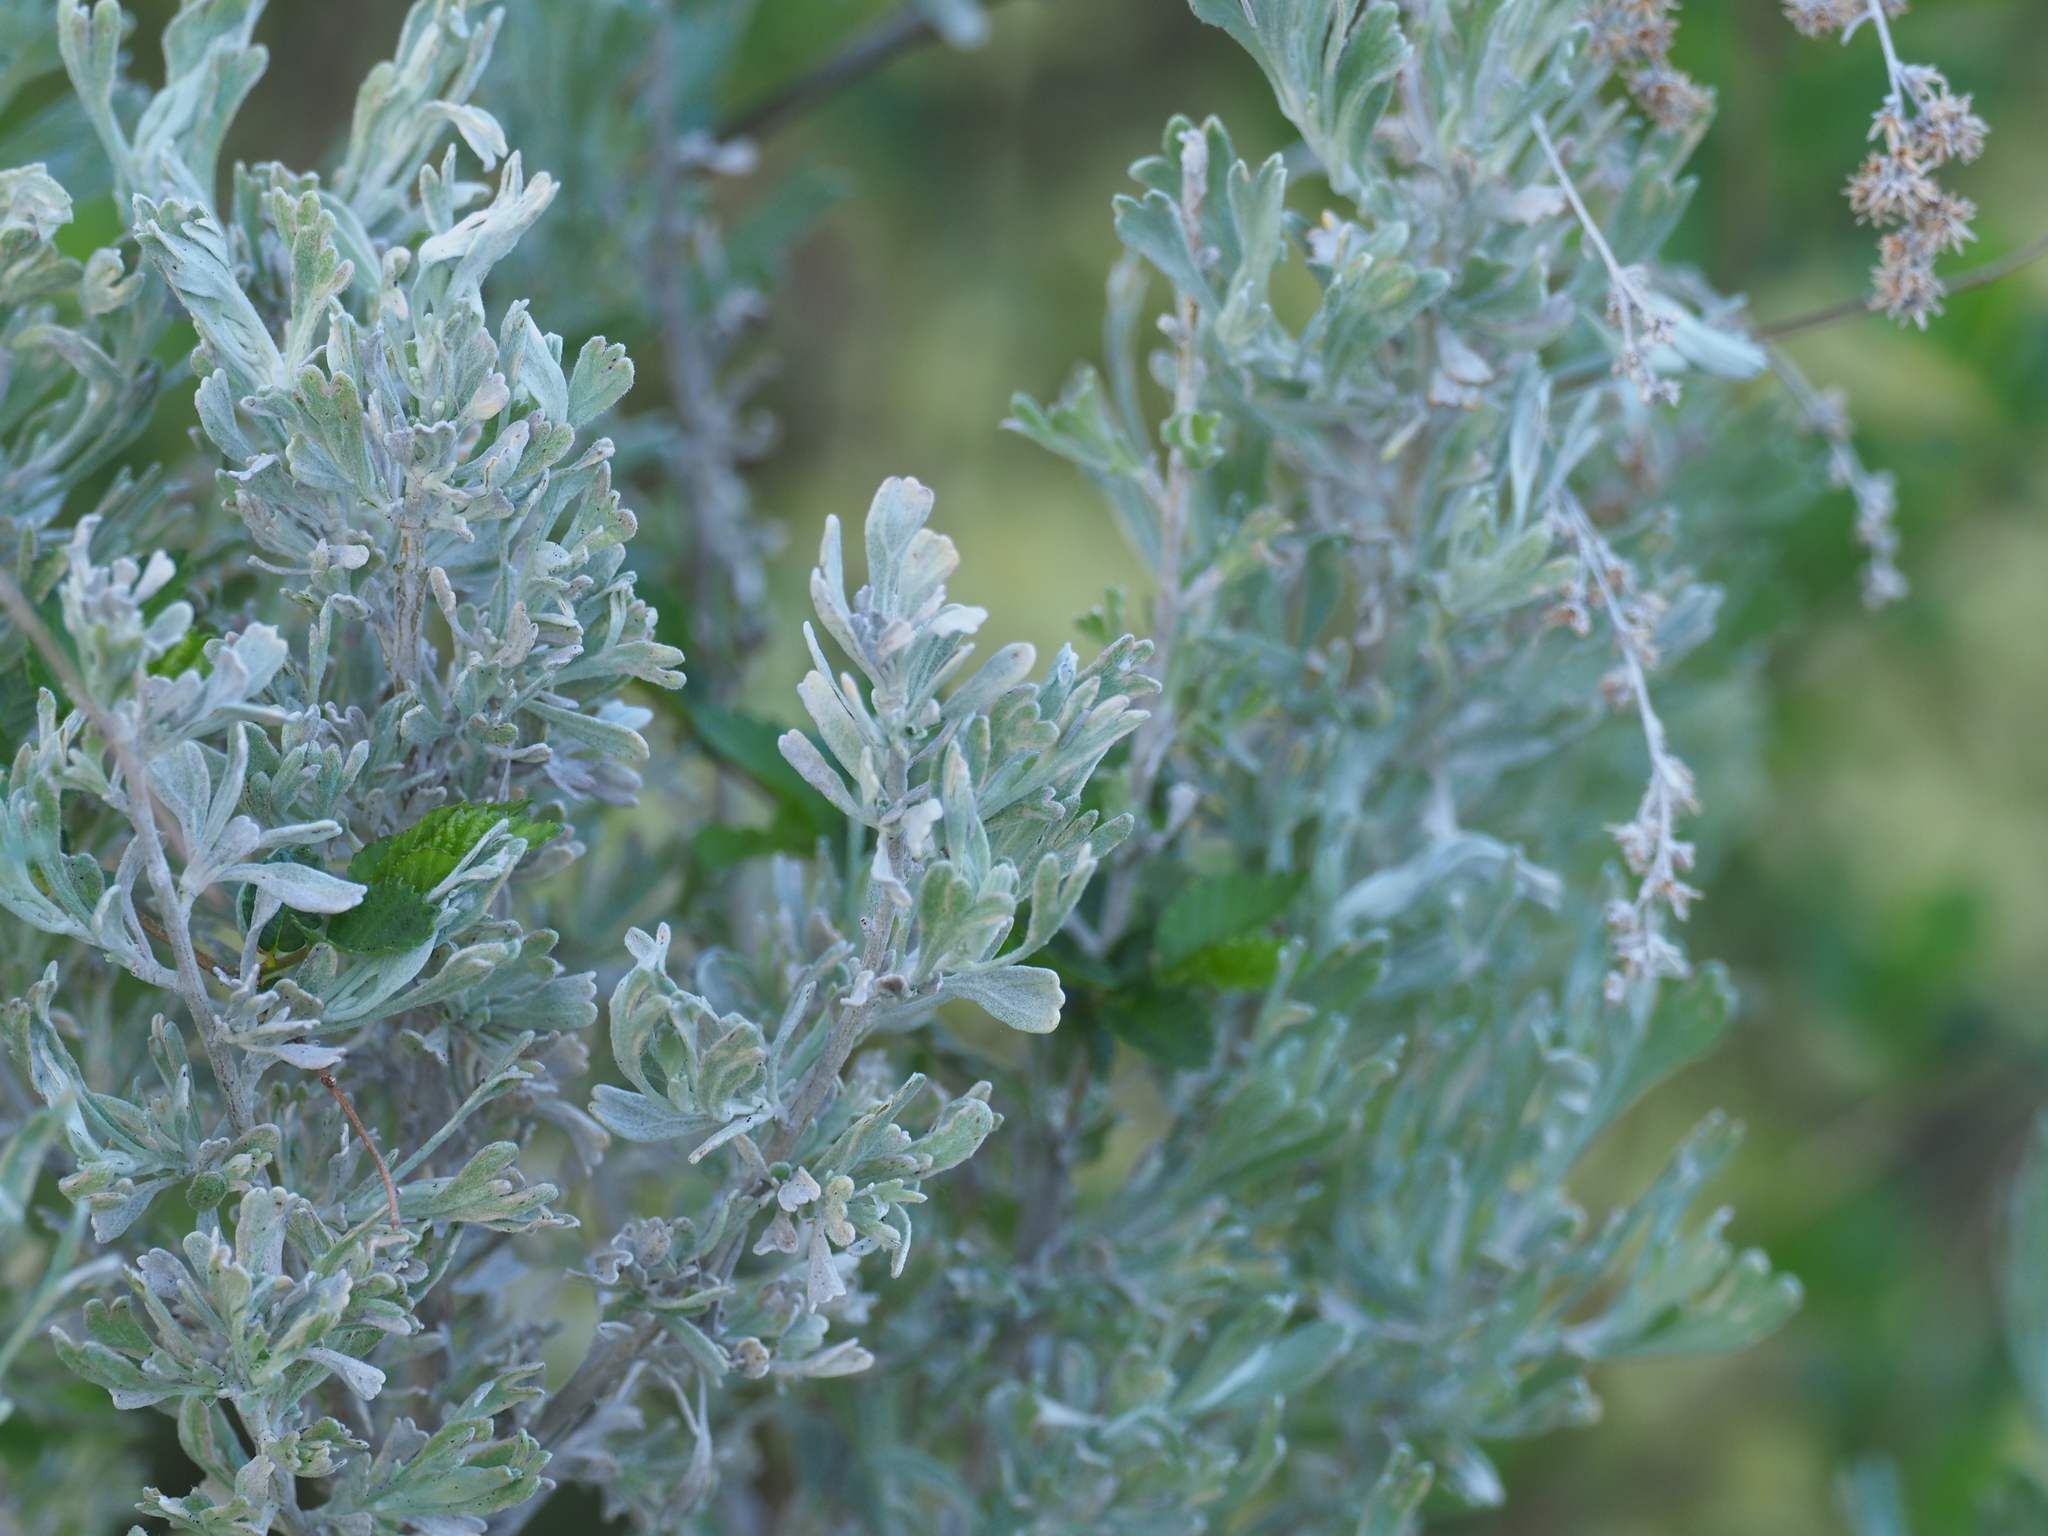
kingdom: Plantae
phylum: Tracheophyta
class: Magnoliopsida
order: Asterales
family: Asteraceae
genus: Artemisia
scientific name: Artemisia tridentata
